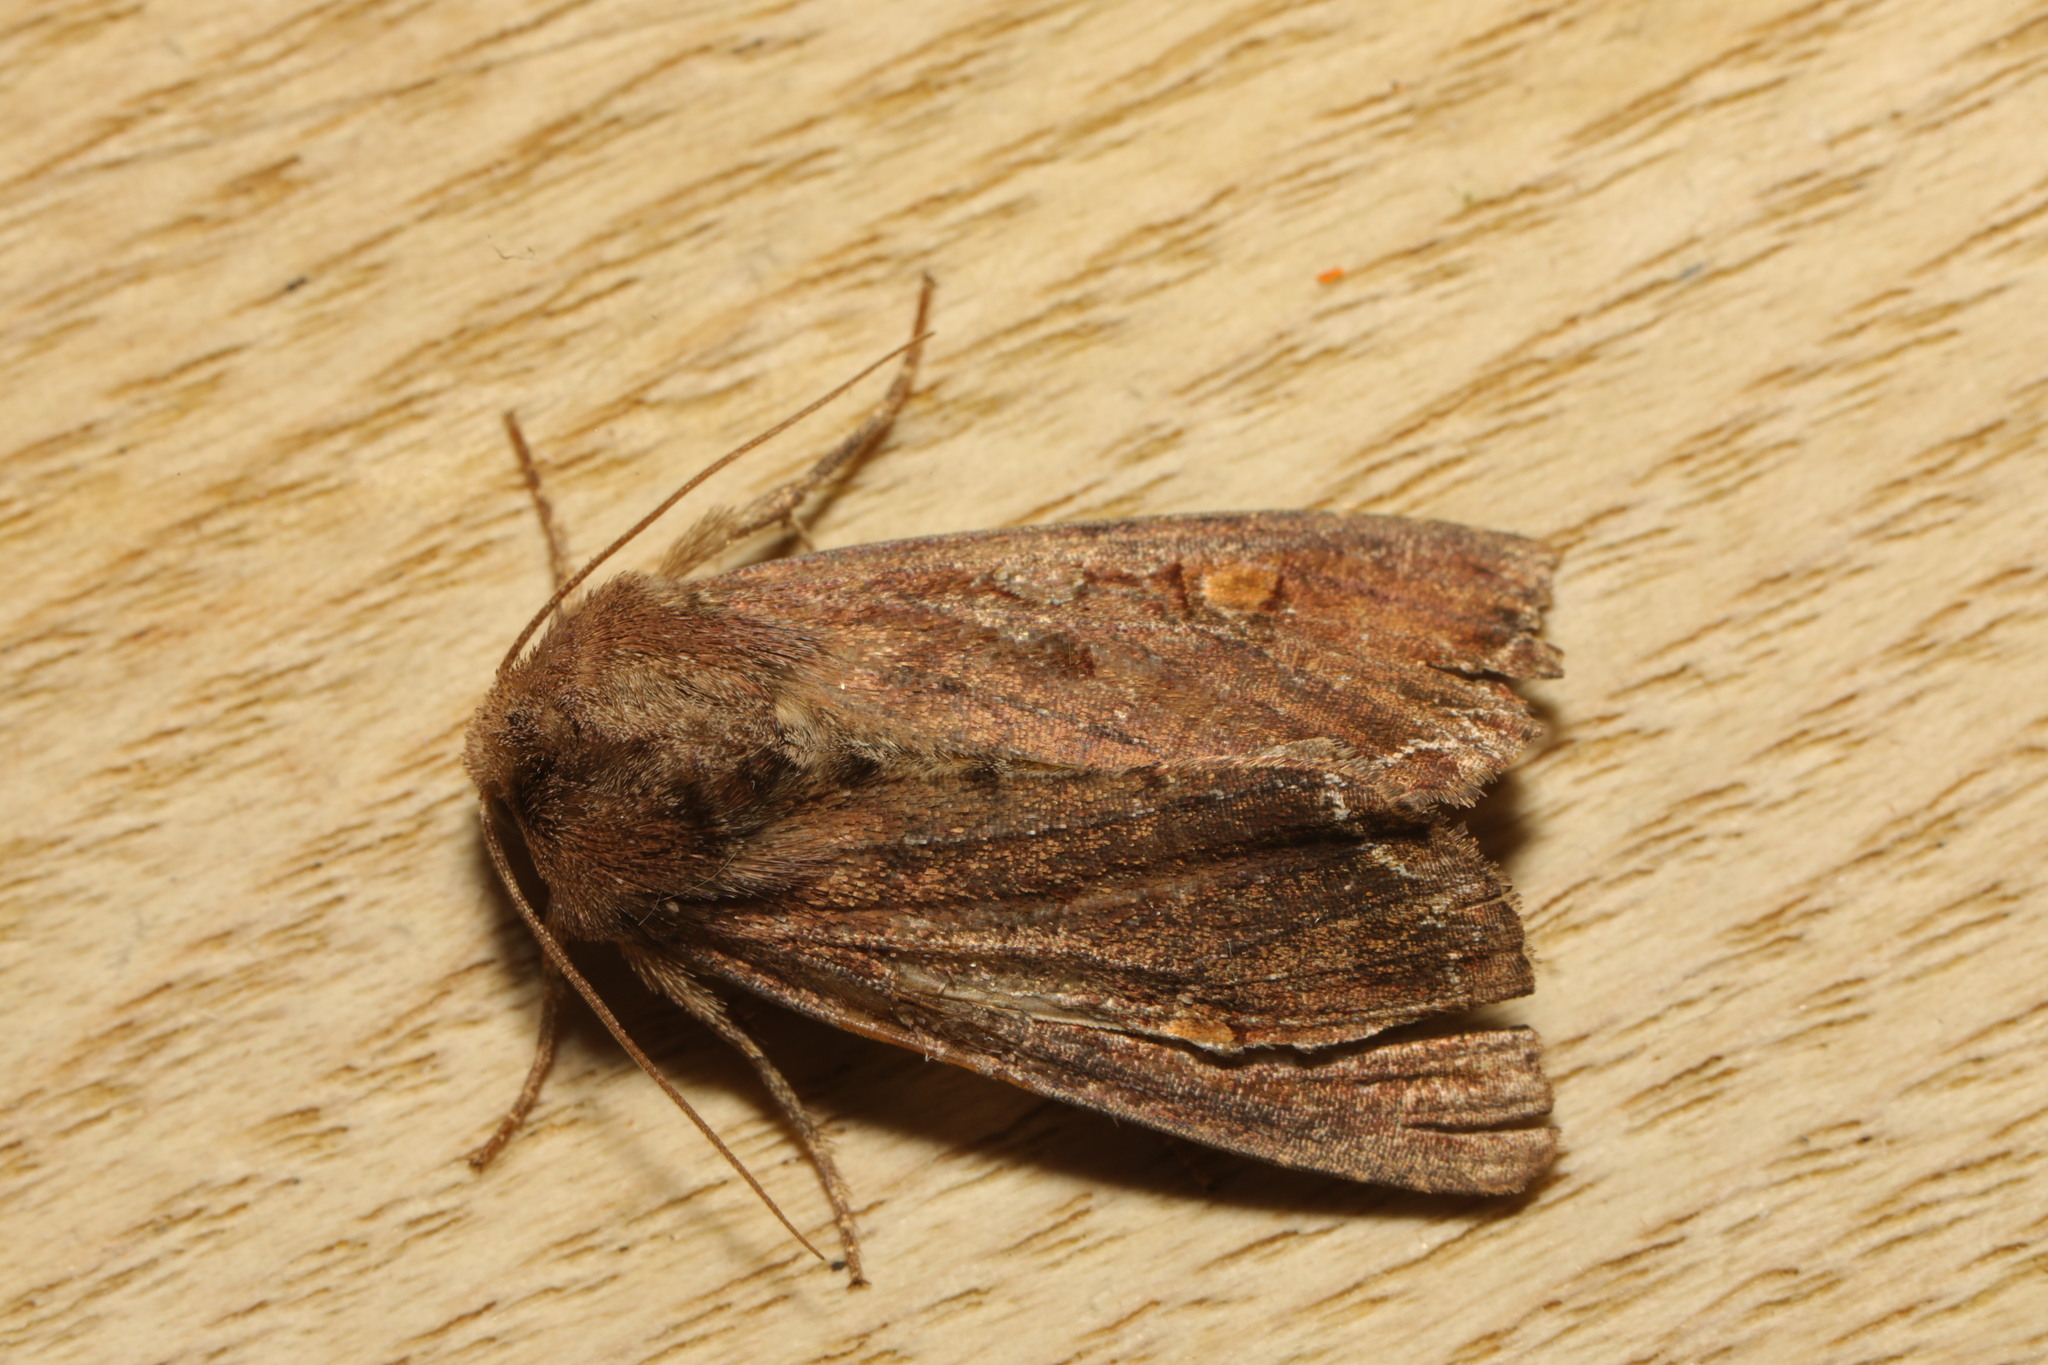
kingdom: Animalia
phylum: Arthropoda
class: Insecta
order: Lepidoptera
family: Noctuidae
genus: Lacanobia
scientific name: Lacanobia oleracea
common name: Bright-line brown-eye
